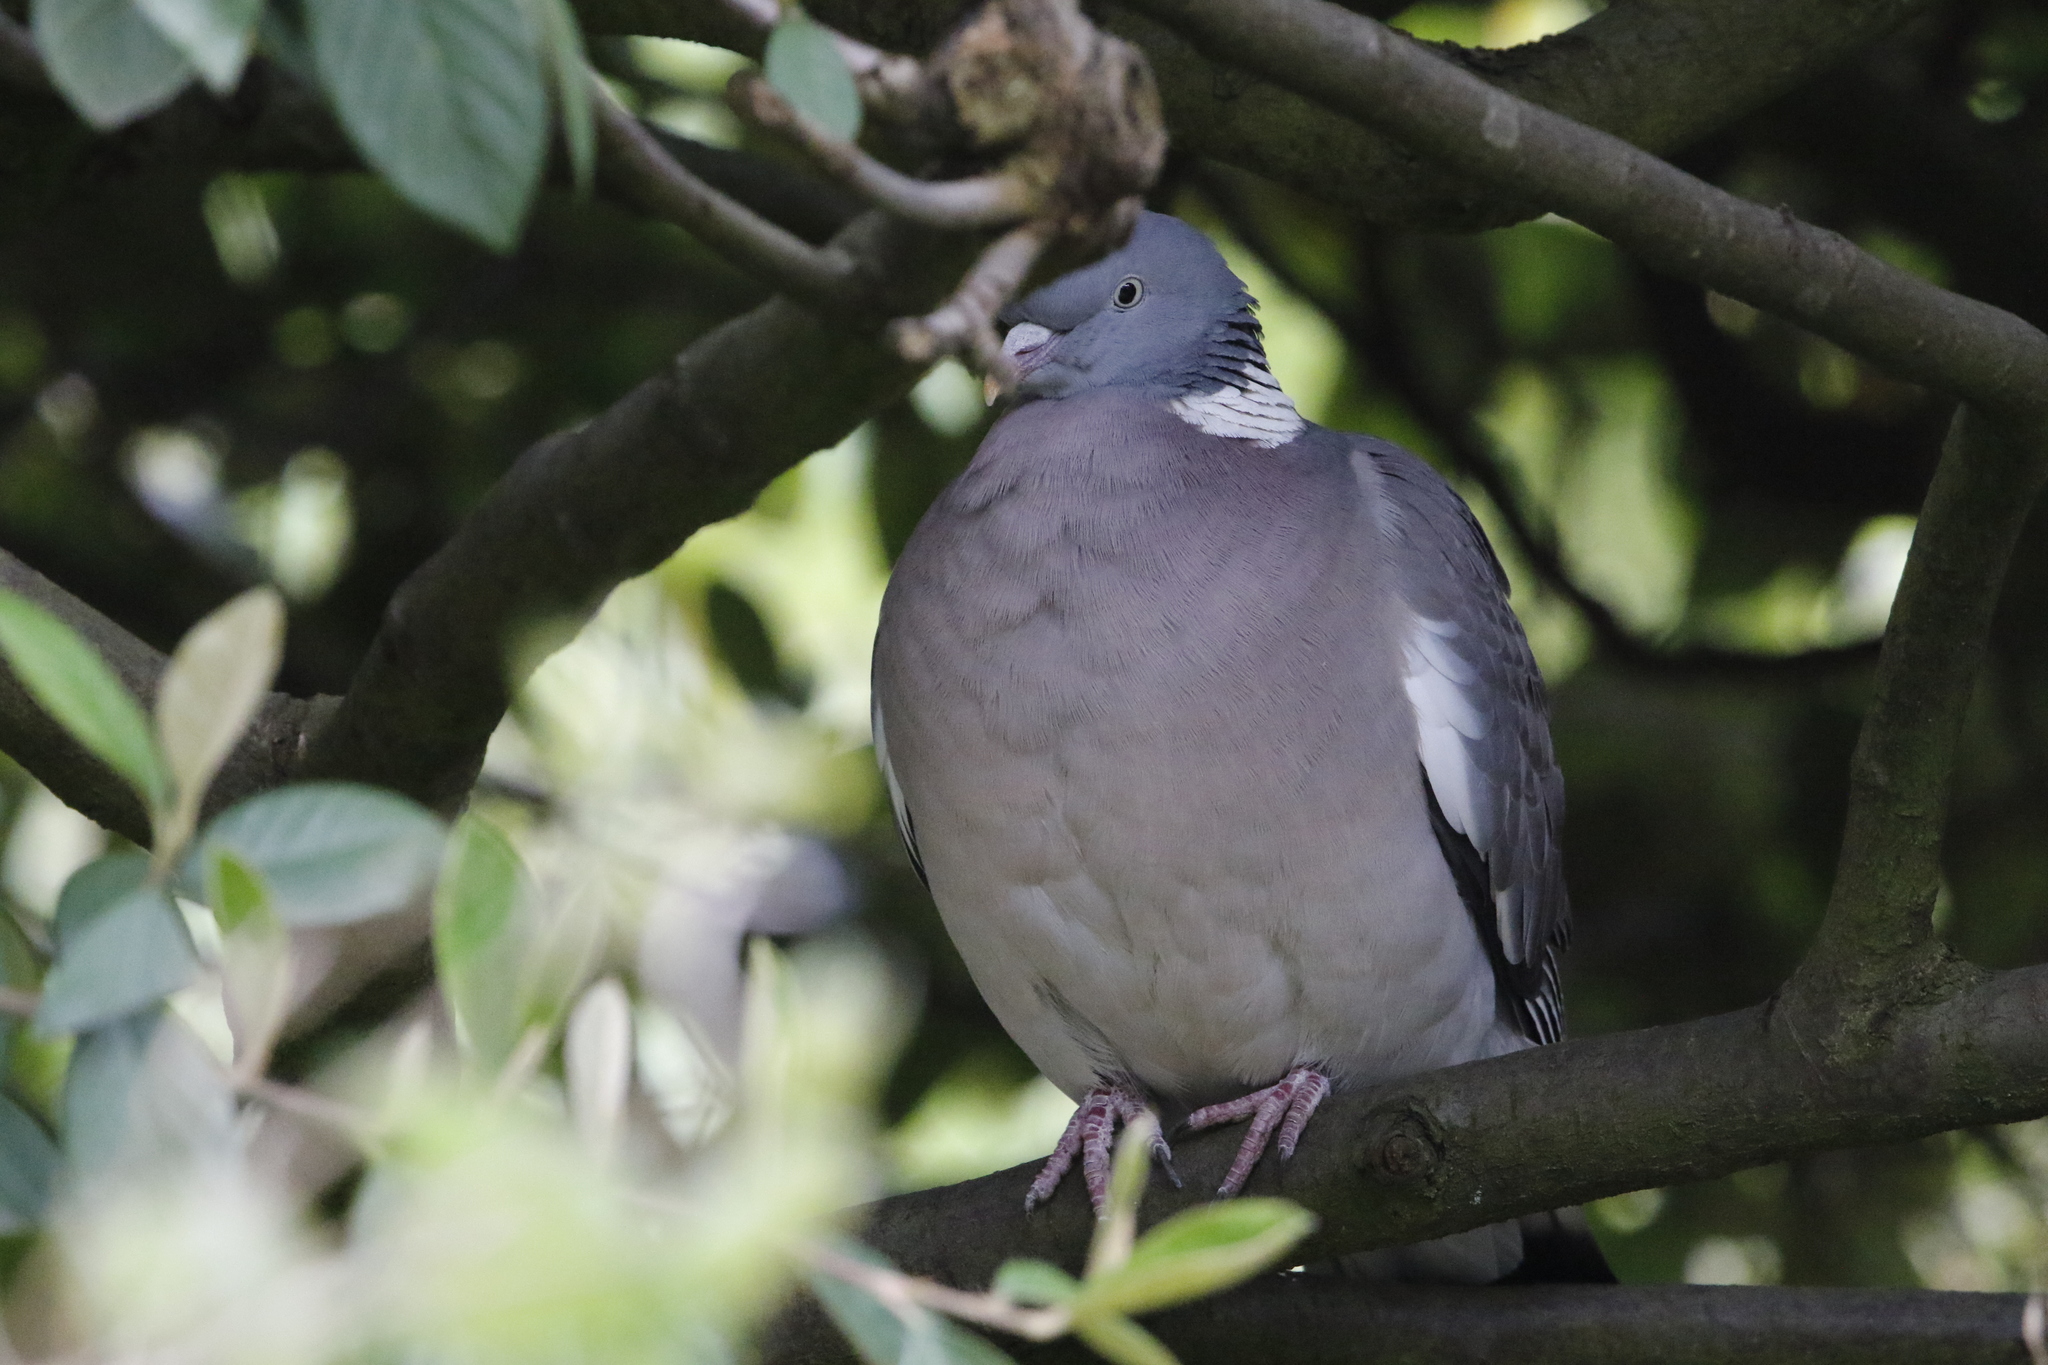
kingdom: Animalia
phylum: Chordata
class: Aves
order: Columbiformes
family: Columbidae
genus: Columba
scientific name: Columba palumbus
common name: Common wood pigeon
